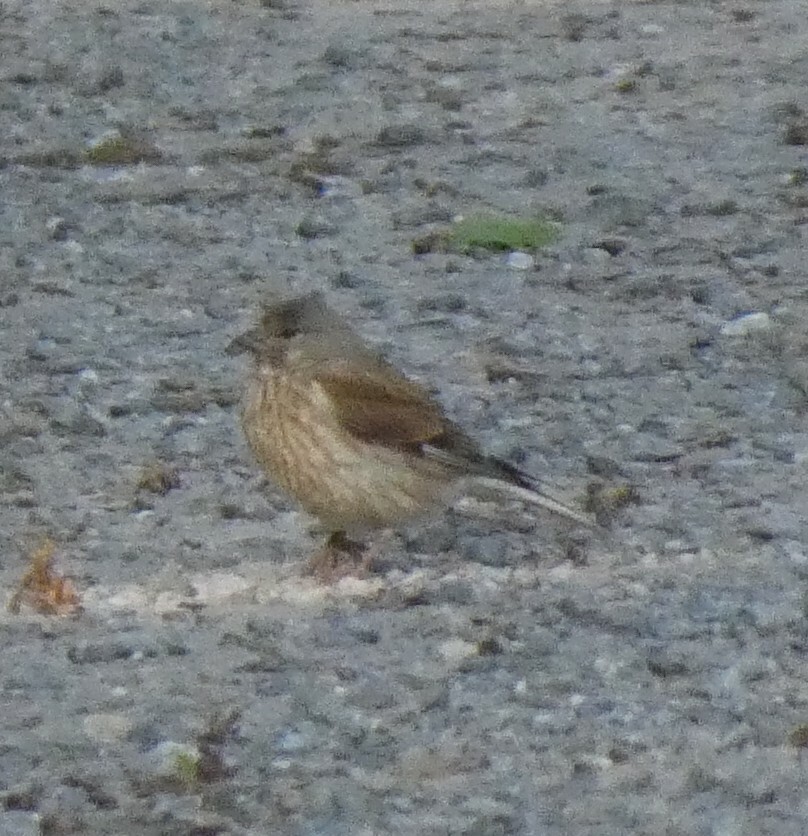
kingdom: Animalia
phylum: Chordata
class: Aves
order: Passeriformes
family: Fringillidae
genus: Linaria
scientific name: Linaria cannabina
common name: Common linnet
